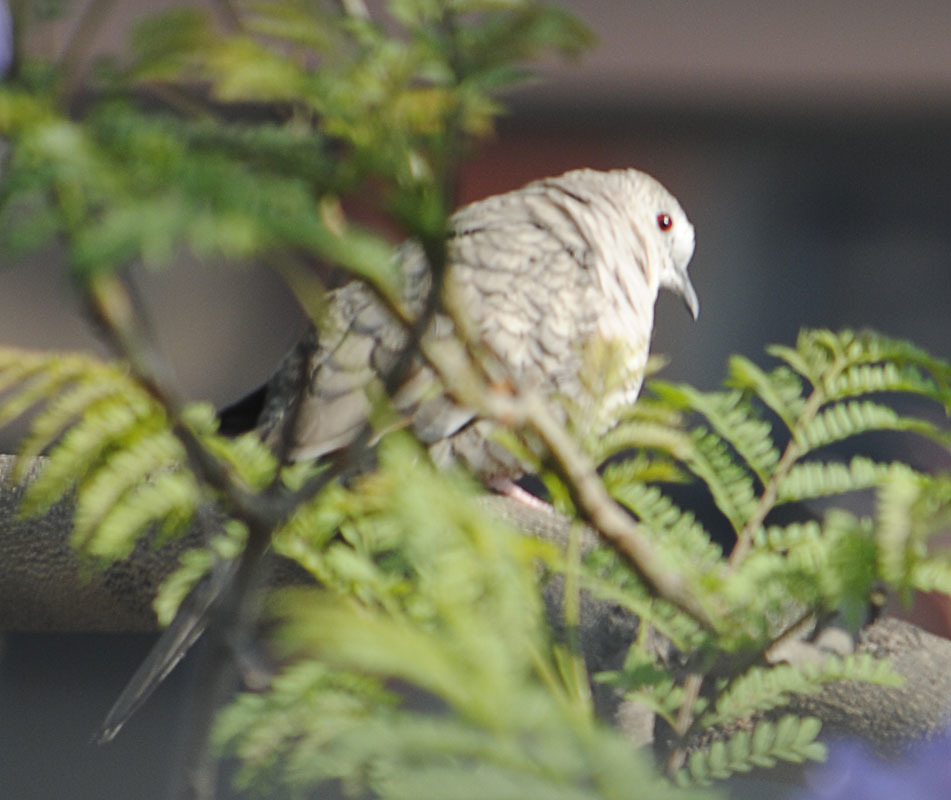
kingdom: Animalia
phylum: Chordata
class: Aves
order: Columbiformes
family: Columbidae
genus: Columbina
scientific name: Columbina inca
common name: Inca dove
